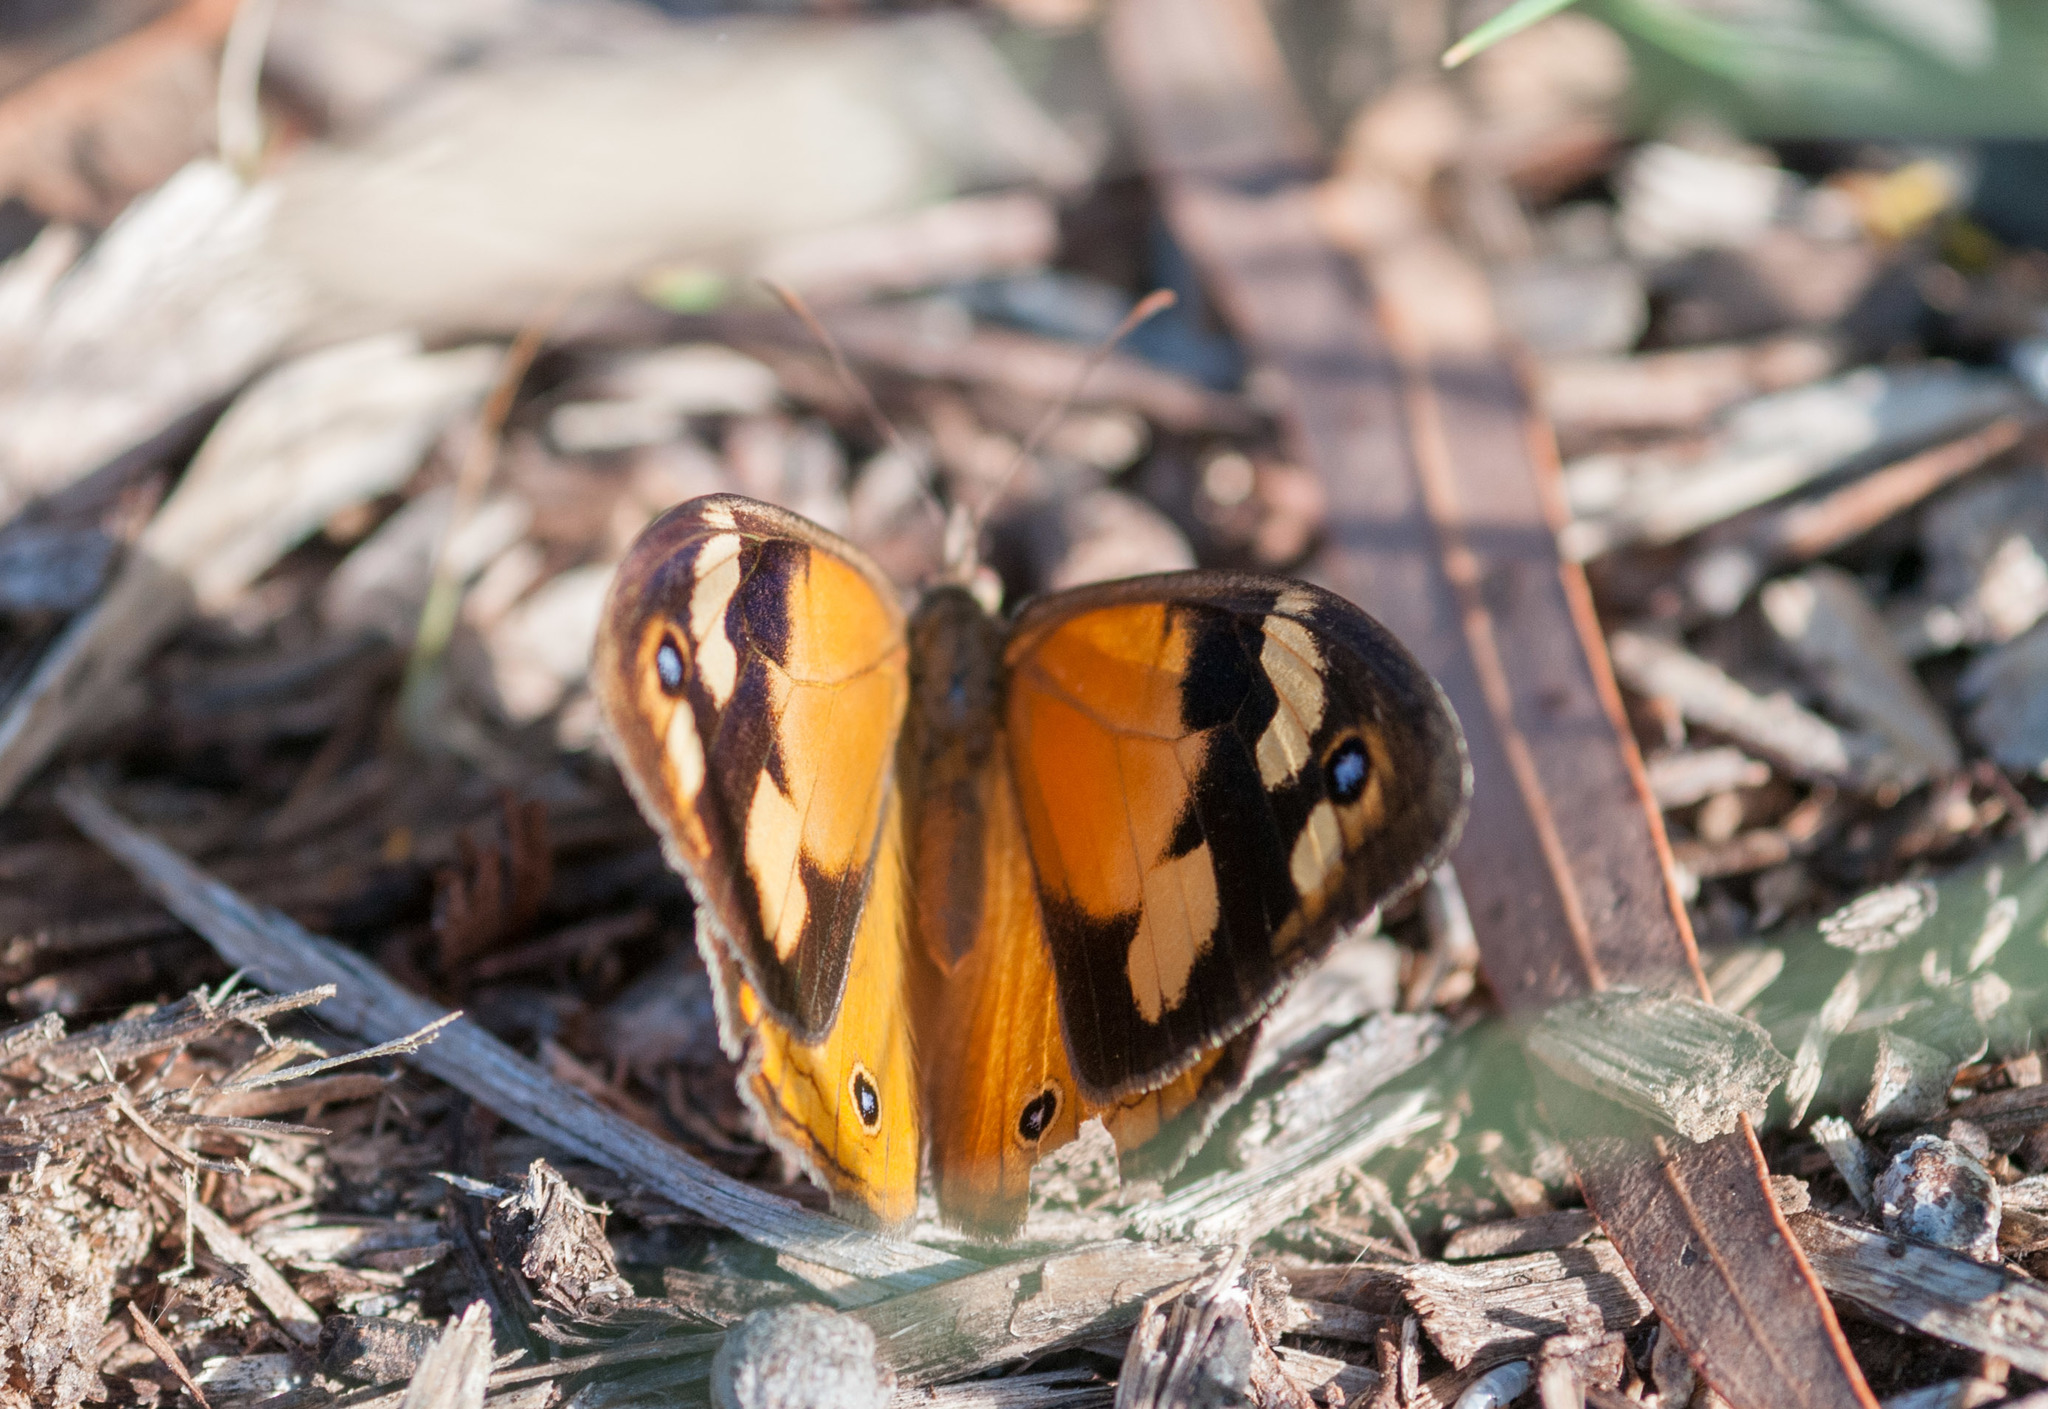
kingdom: Animalia
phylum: Arthropoda
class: Insecta
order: Lepidoptera
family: Nymphalidae
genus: Heteronympha
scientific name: Heteronympha merope
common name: Common brown
